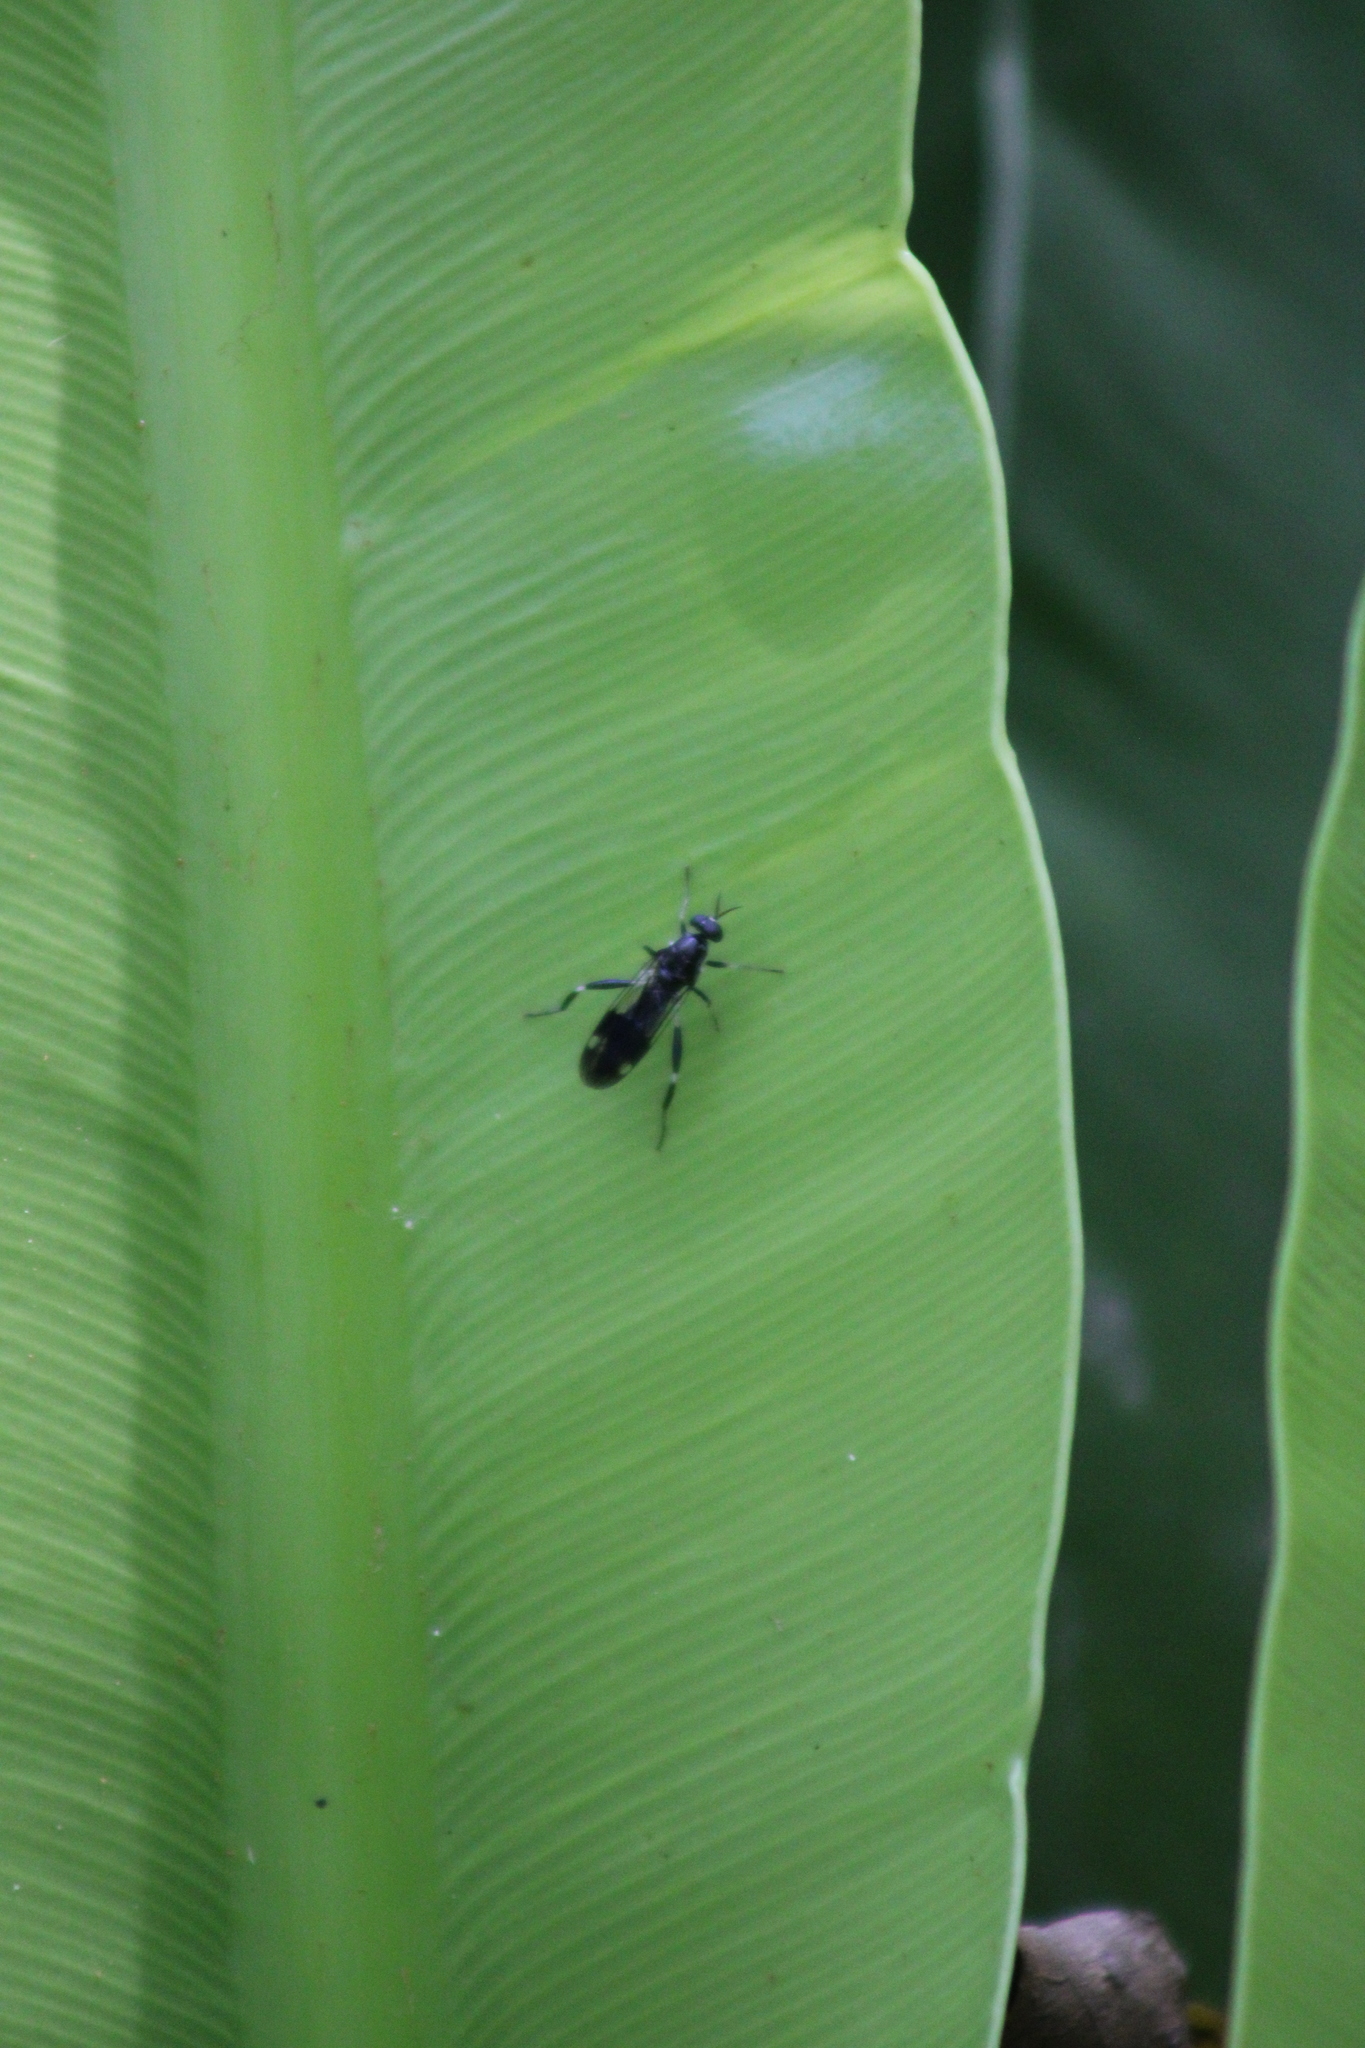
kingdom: Animalia
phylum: Arthropoda
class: Insecta
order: Diptera
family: Stratiomyidae
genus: Exaireta
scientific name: Exaireta spinigera
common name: Blue soldier fly
